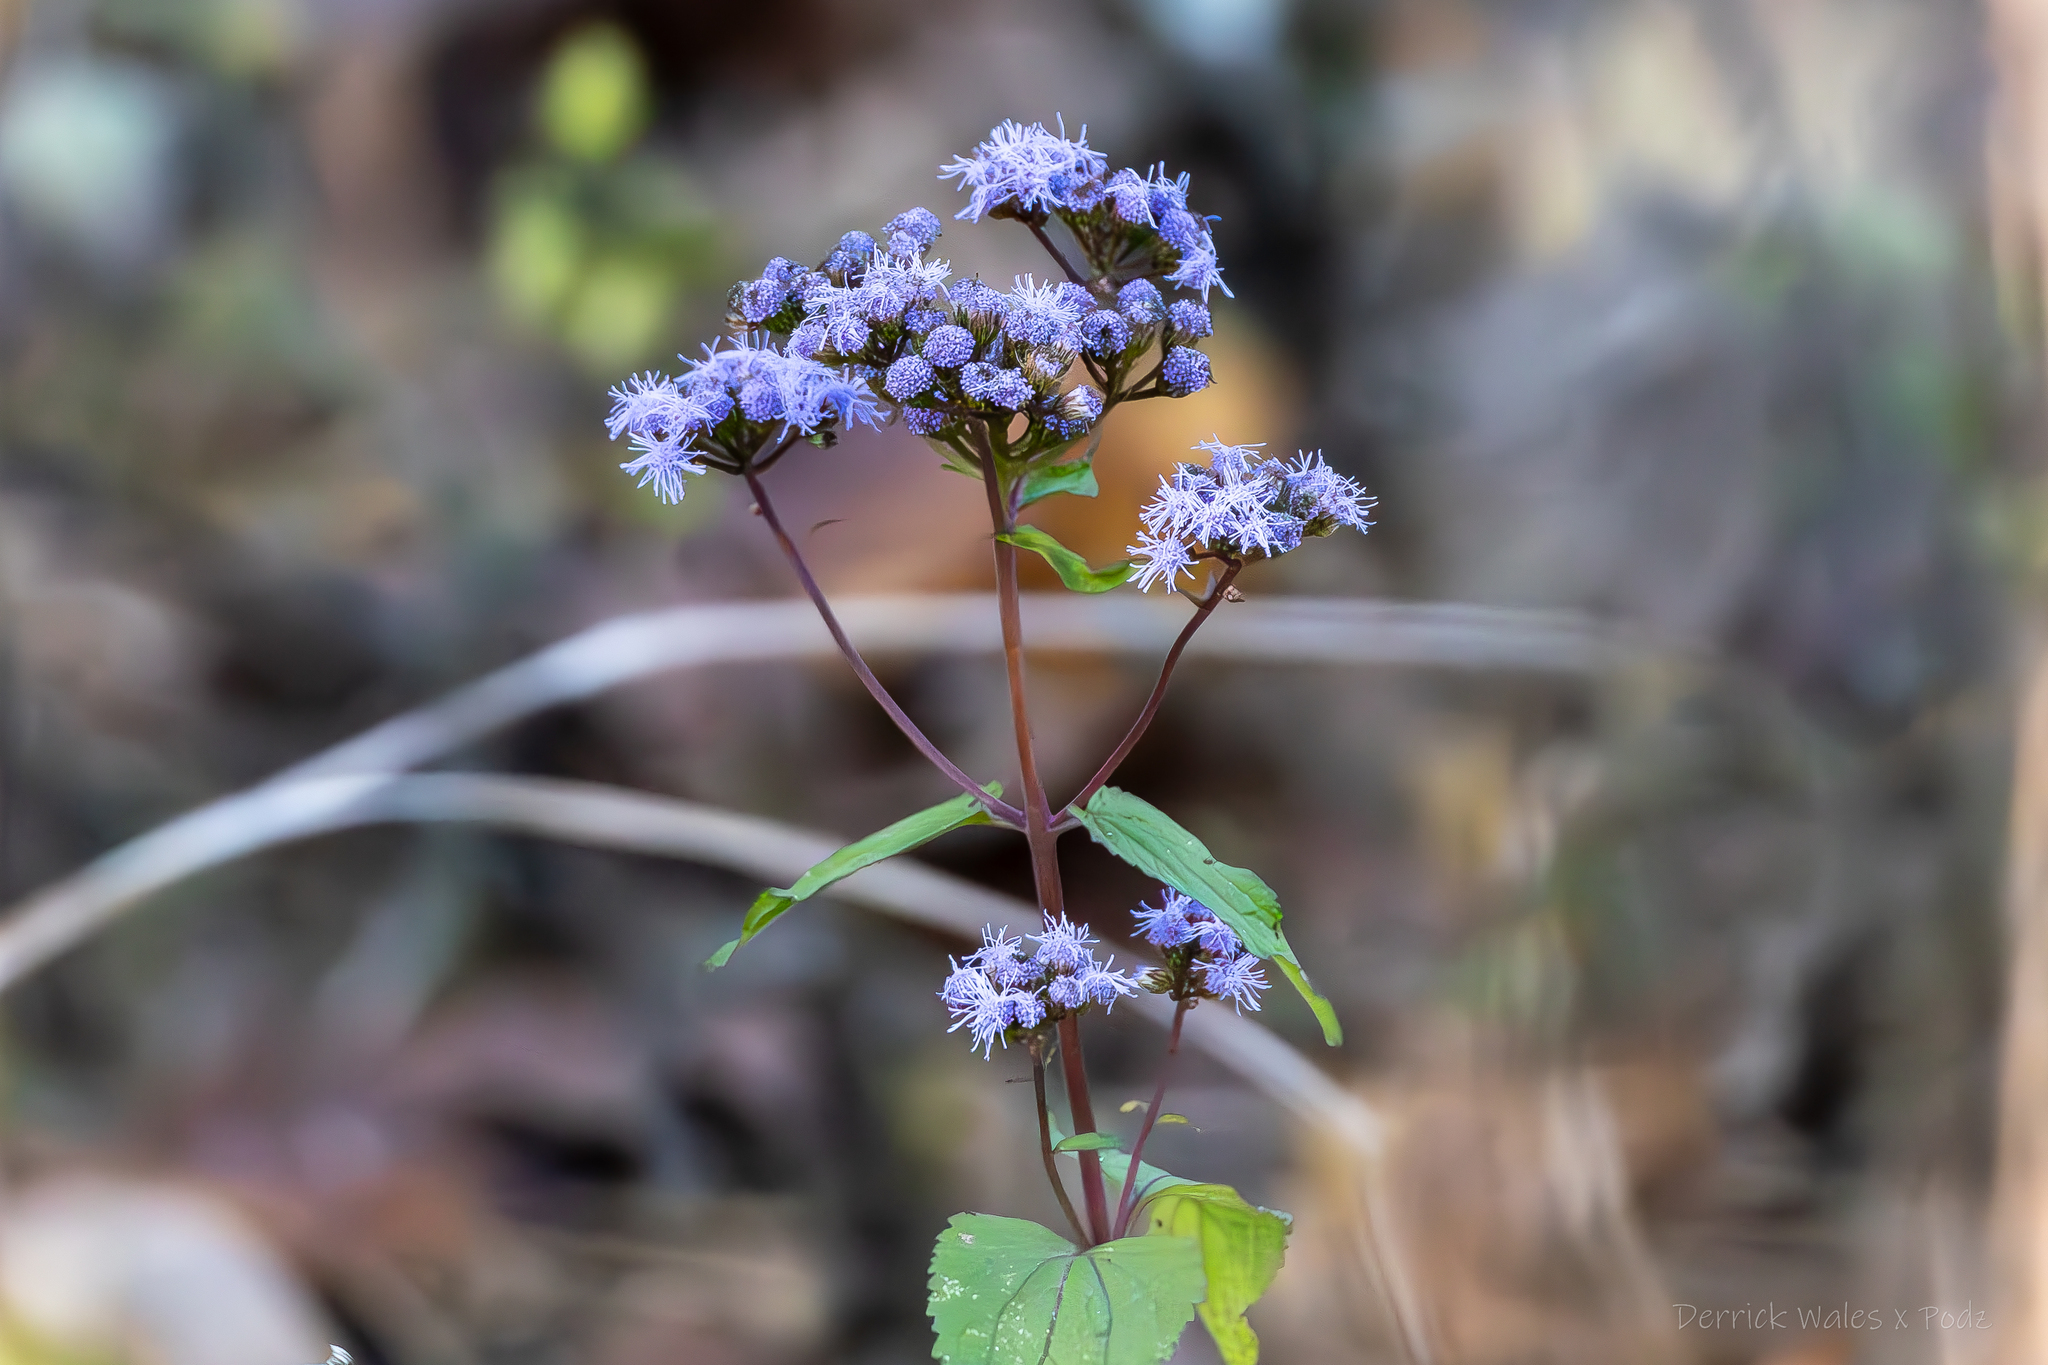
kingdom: Plantae
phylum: Tracheophyta
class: Magnoliopsida
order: Asterales
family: Asteraceae
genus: Conoclinium
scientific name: Conoclinium coelestinum
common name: Blue mistflower
